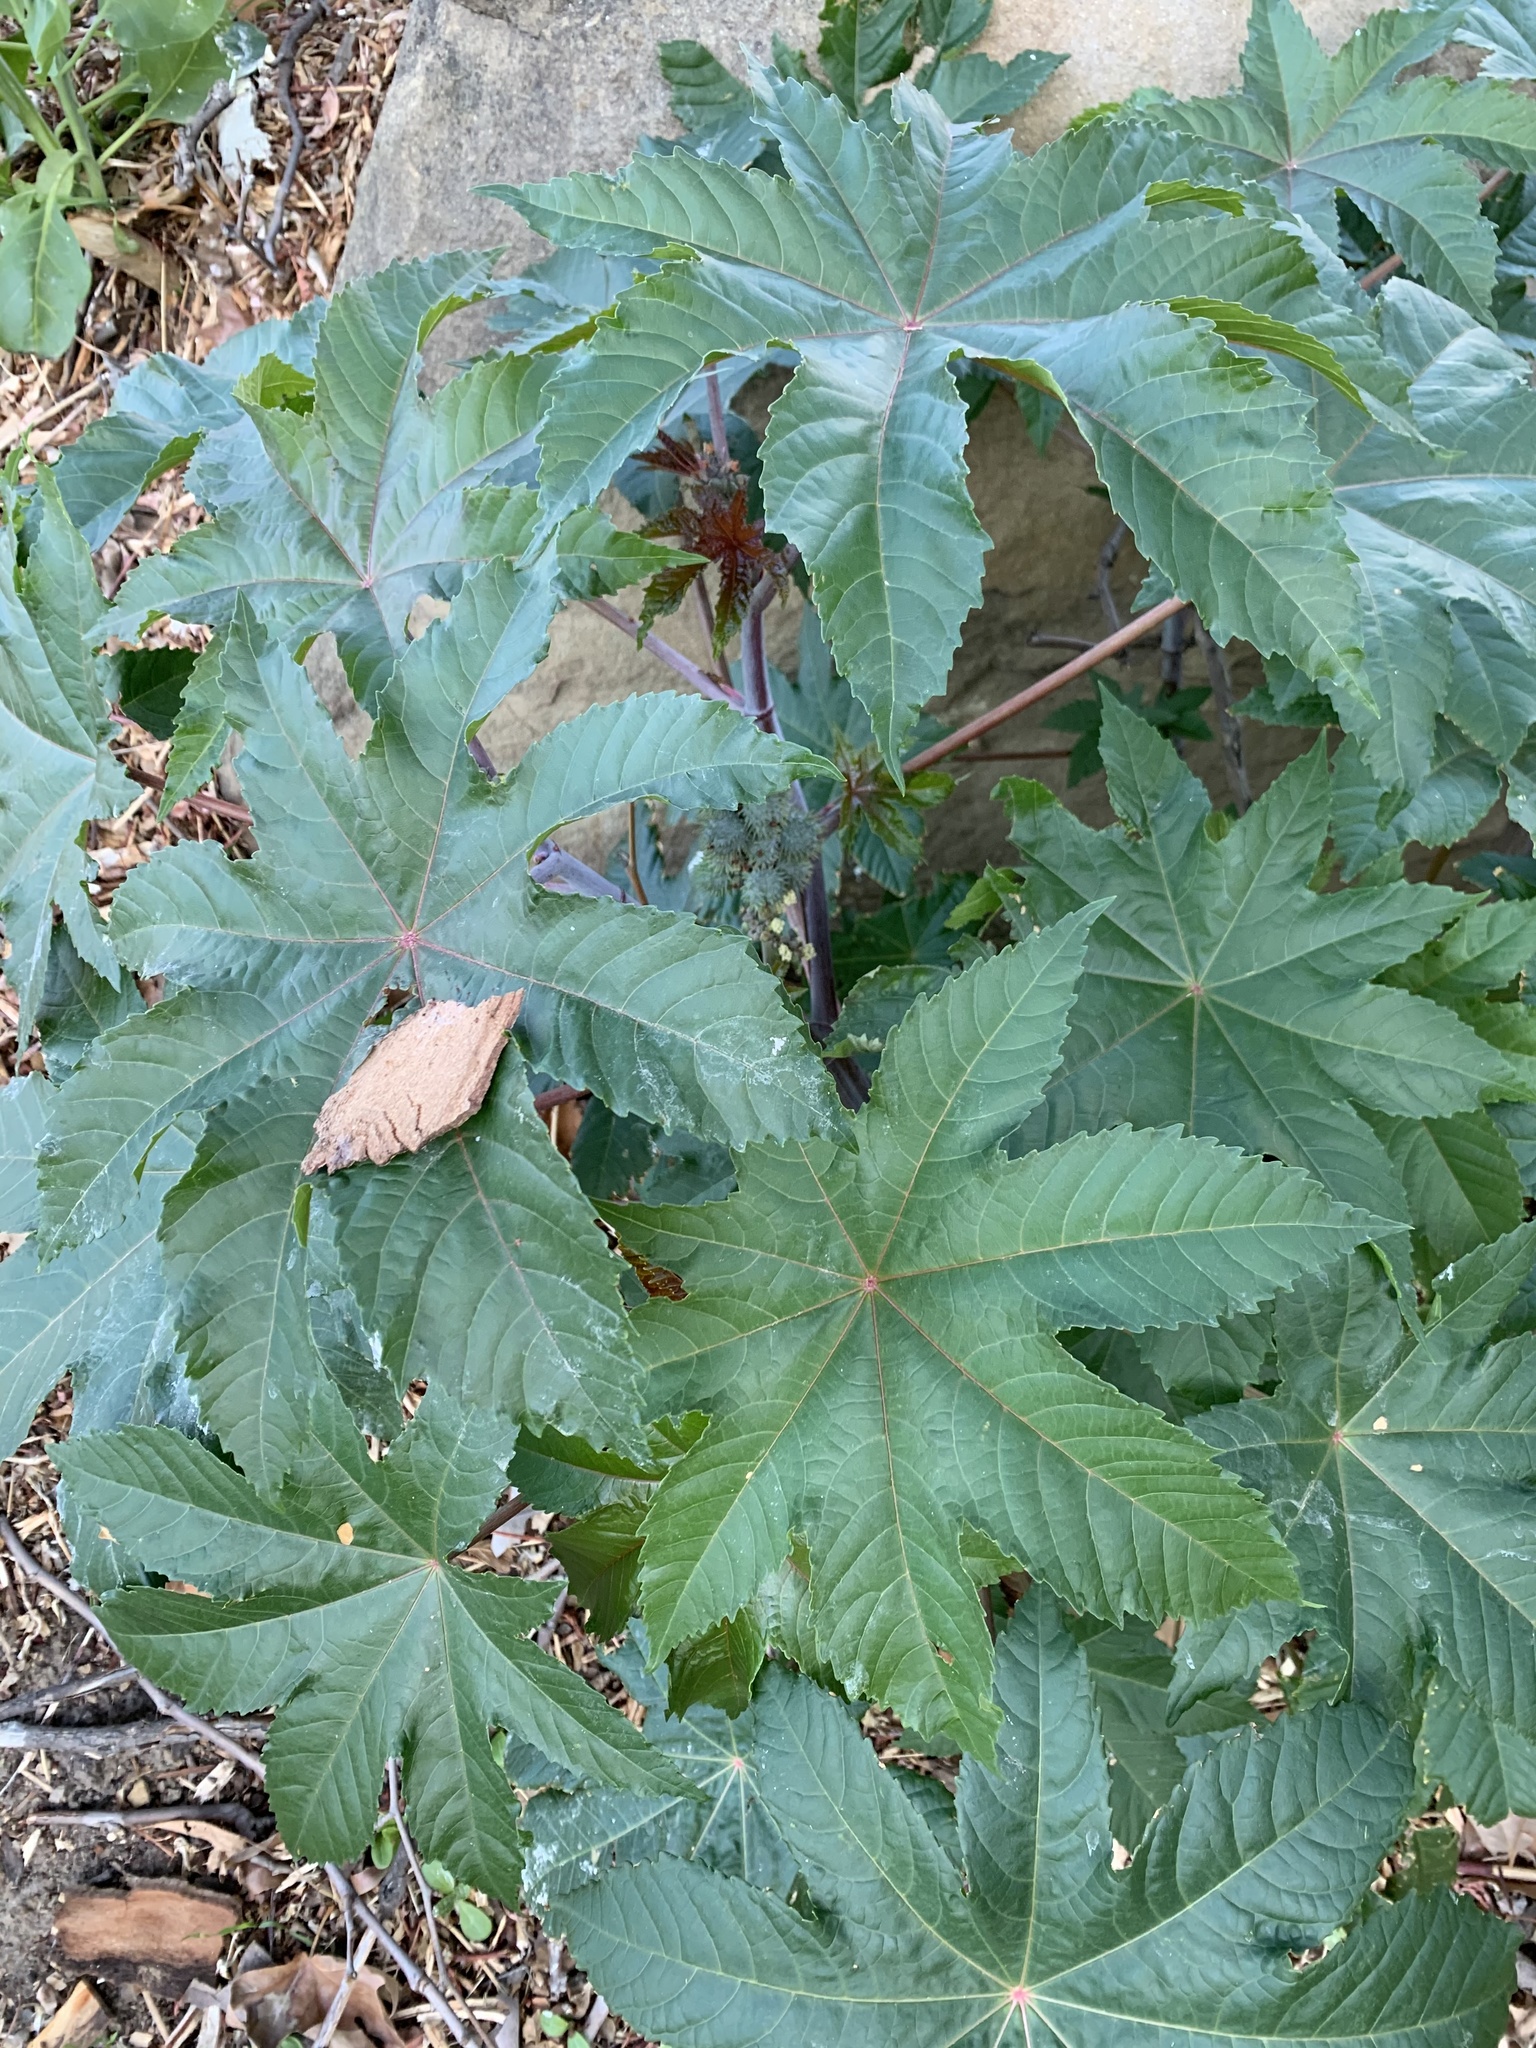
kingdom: Plantae
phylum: Tracheophyta
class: Magnoliopsida
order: Malpighiales
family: Euphorbiaceae
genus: Ricinus
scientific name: Ricinus communis
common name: Castor-oil-plant
